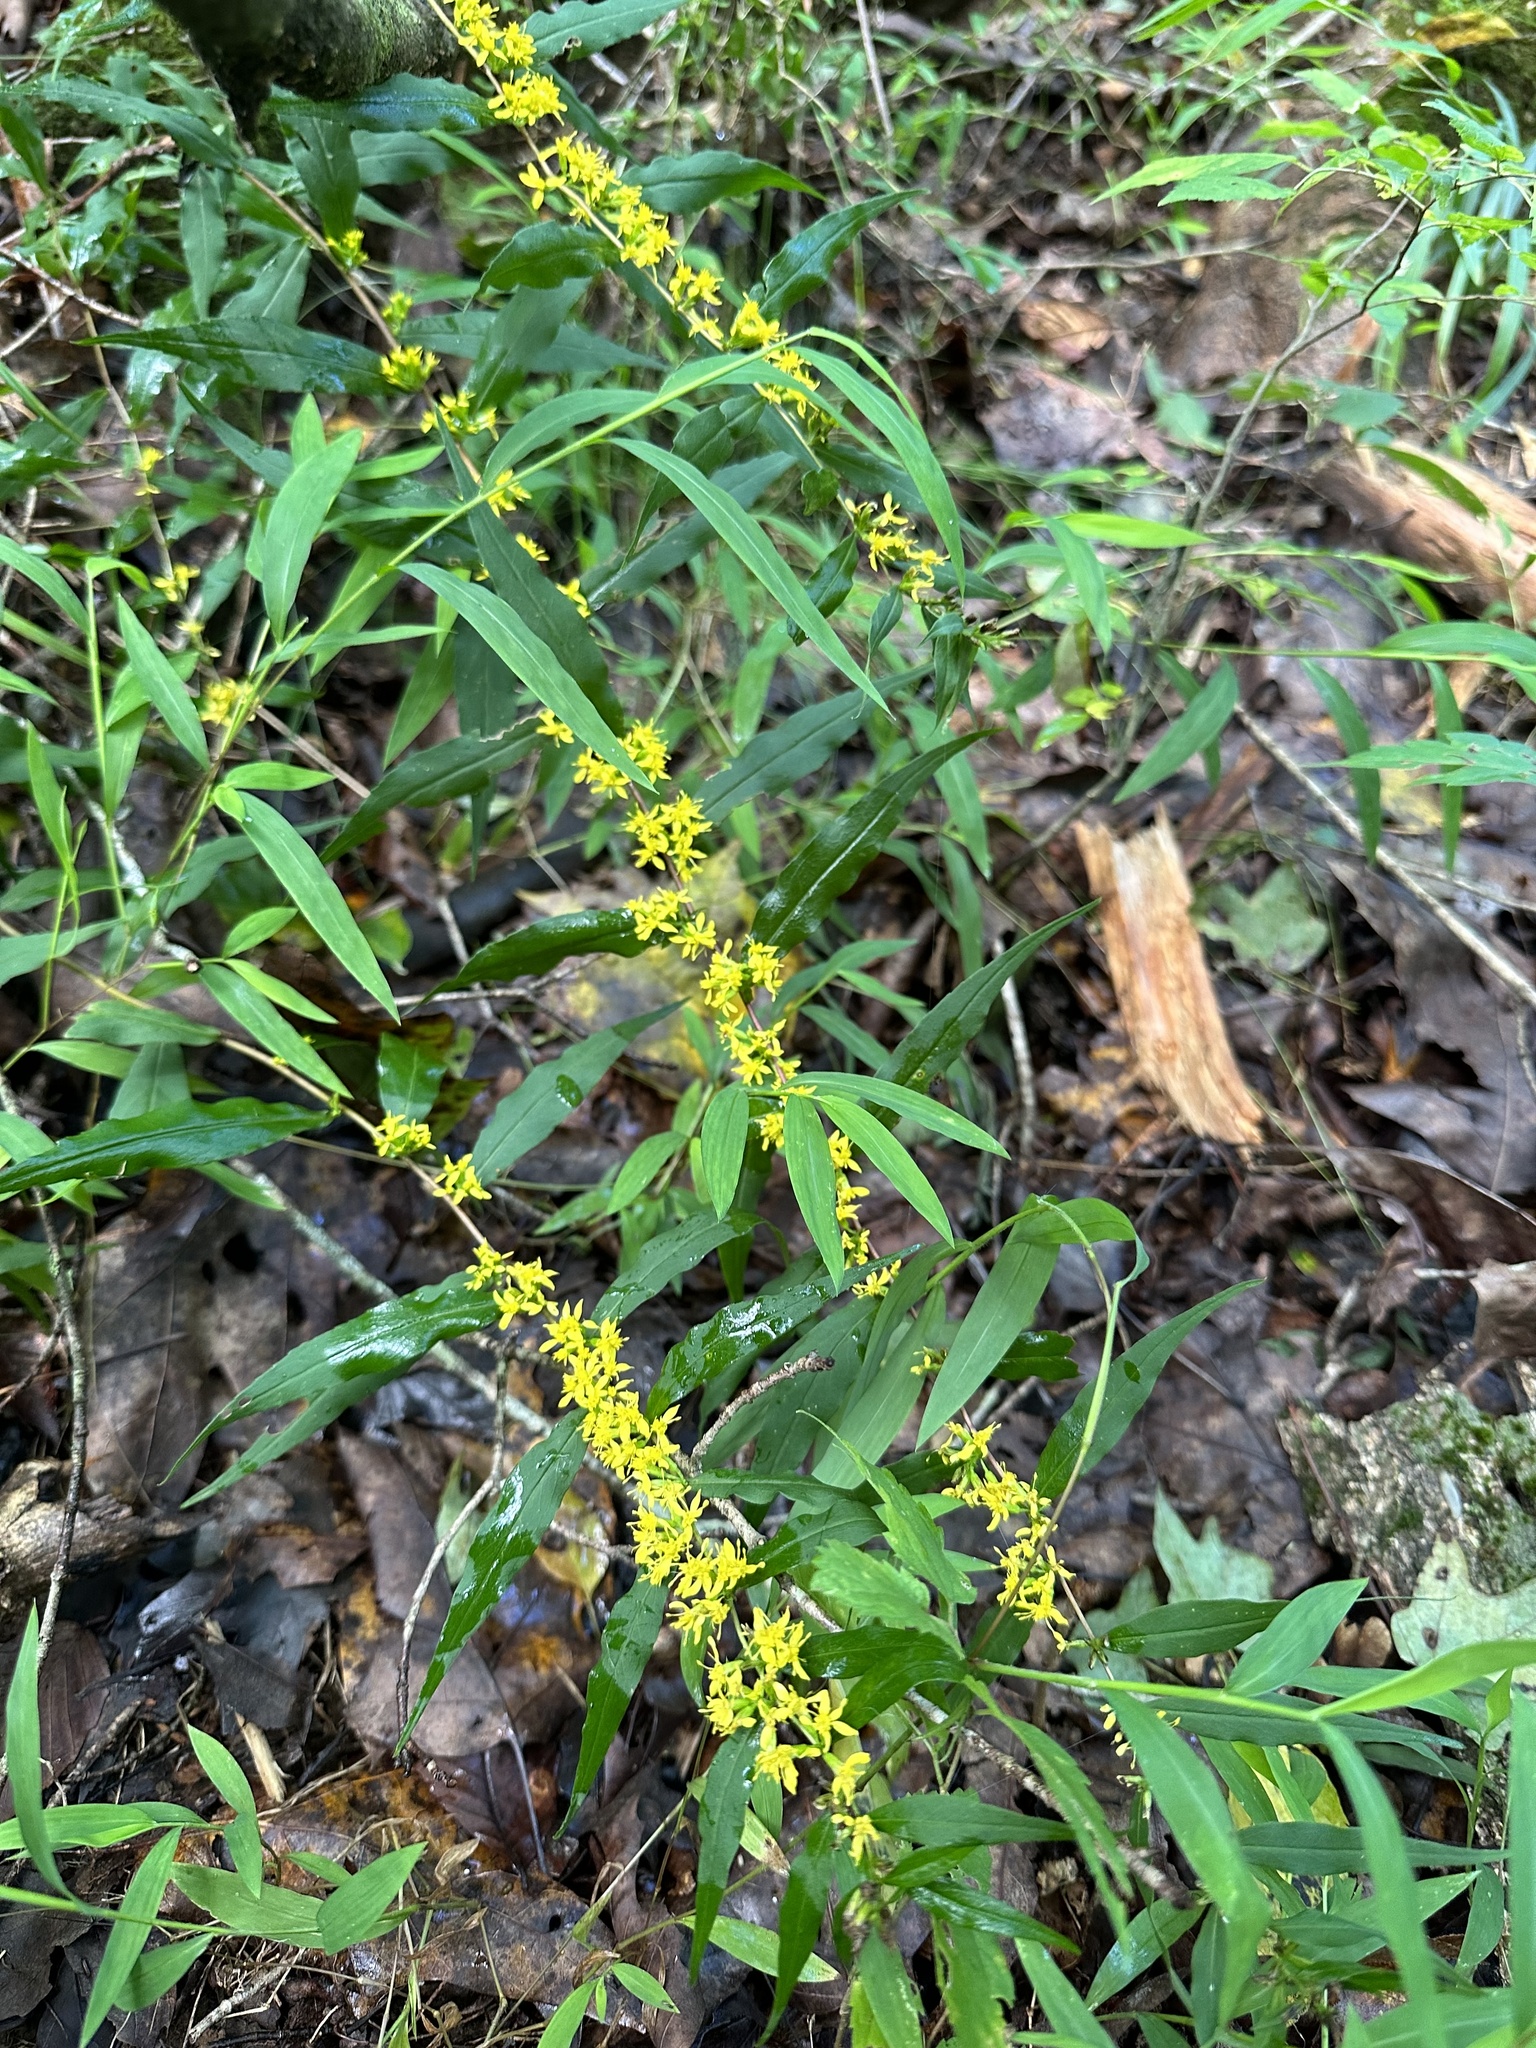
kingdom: Plantae
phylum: Tracheophyta
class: Magnoliopsida
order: Asterales
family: Asteraceae
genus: Solidago
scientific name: Solidago caesia
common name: Woodland goldenrod
